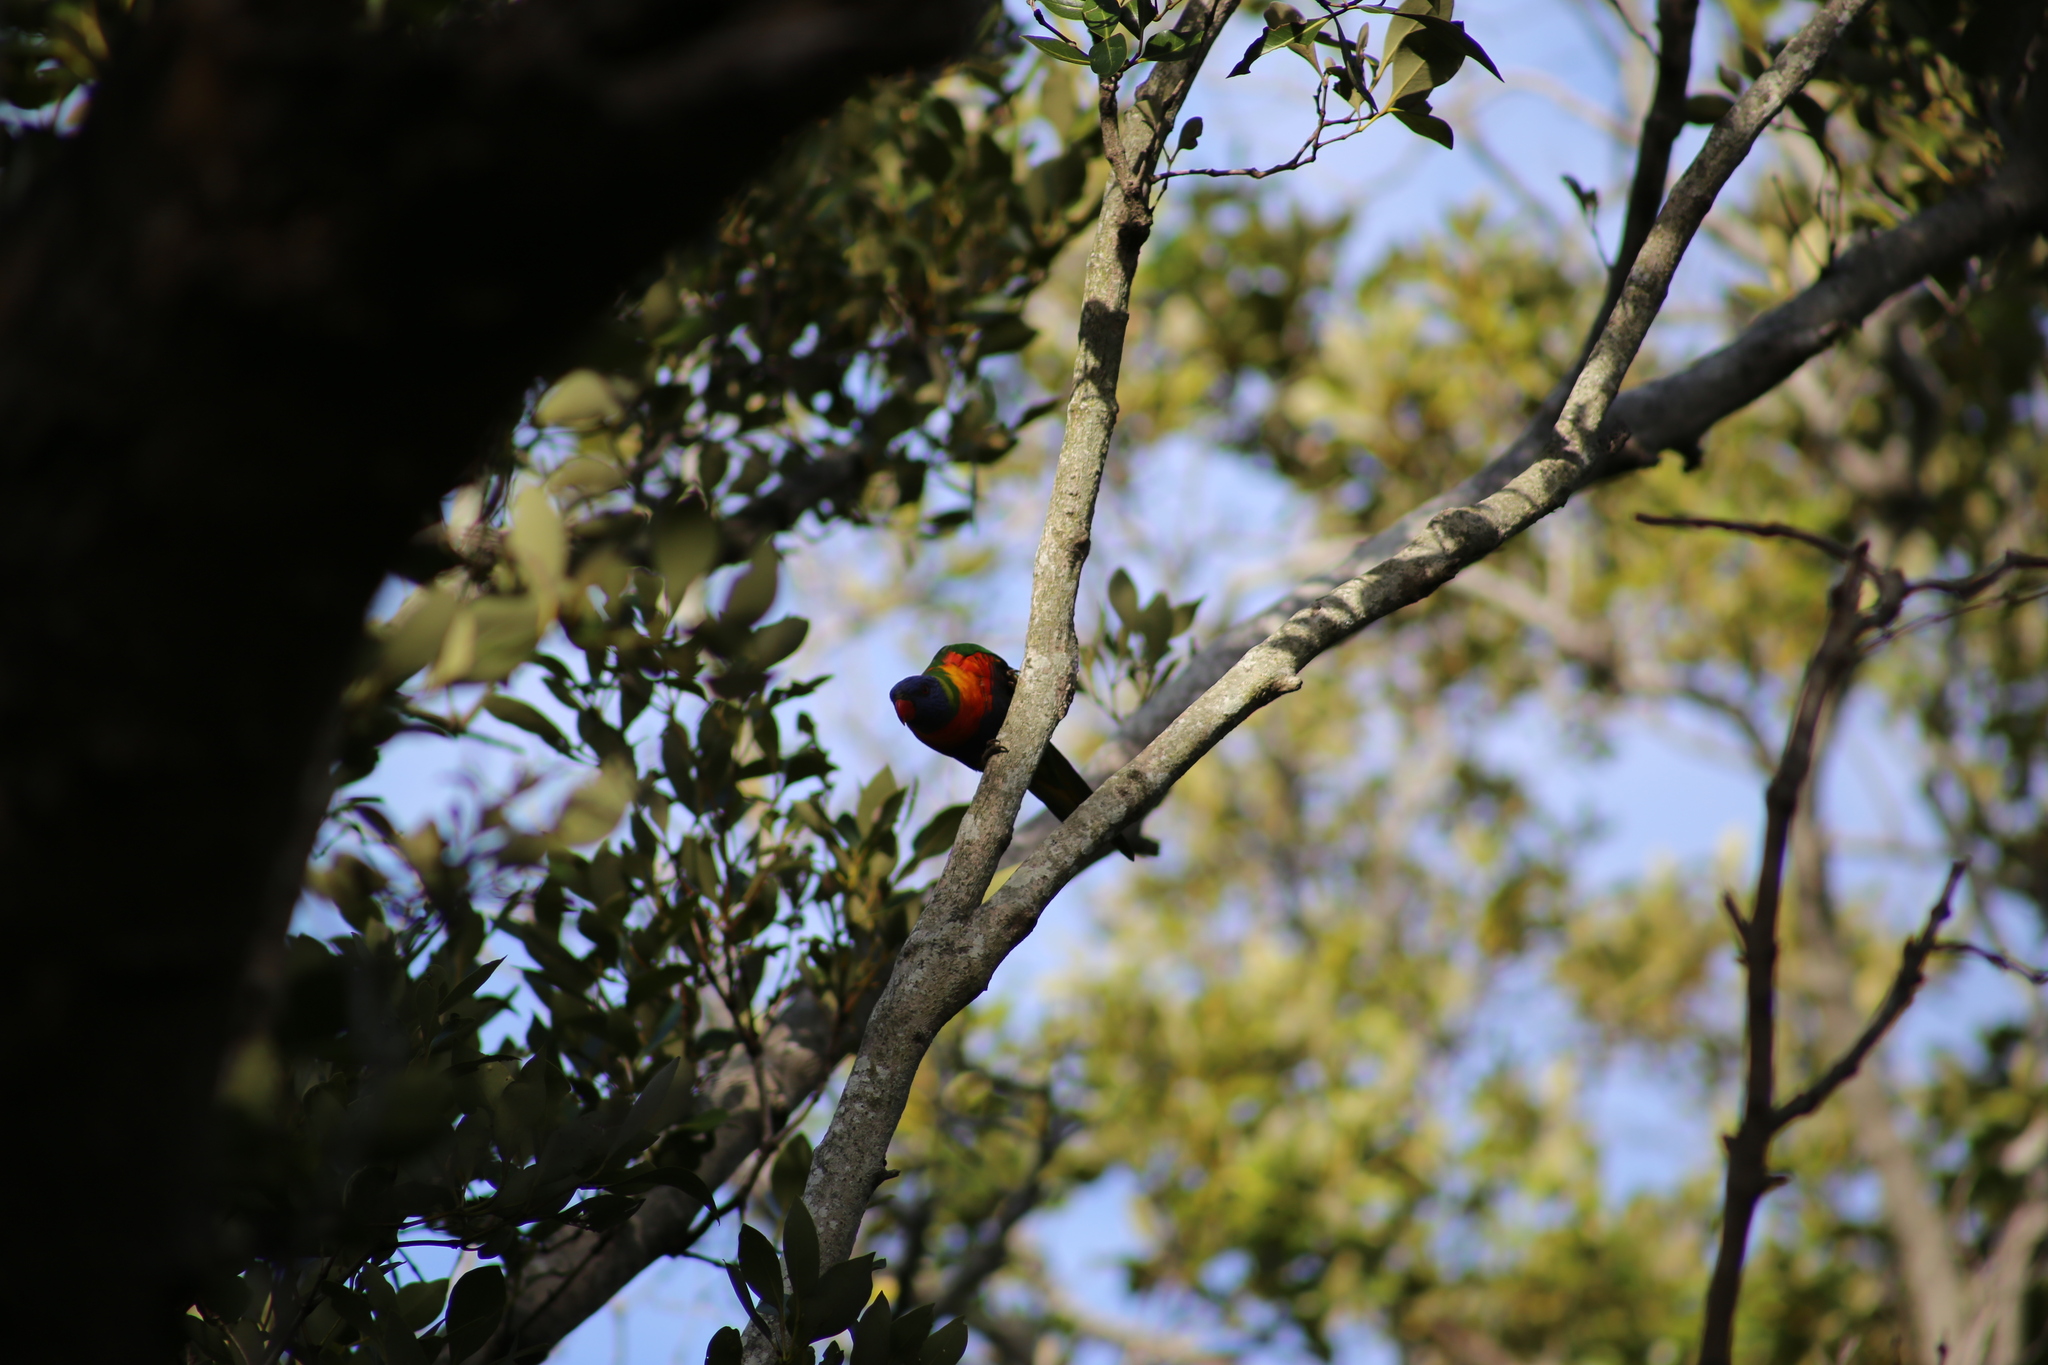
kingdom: Animalia
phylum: Chordata
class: Aves
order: Psittaciformes
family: Psittacidae
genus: Trichoglossus
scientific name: Trichoglossus haematodus
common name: Coconut lorikeet
